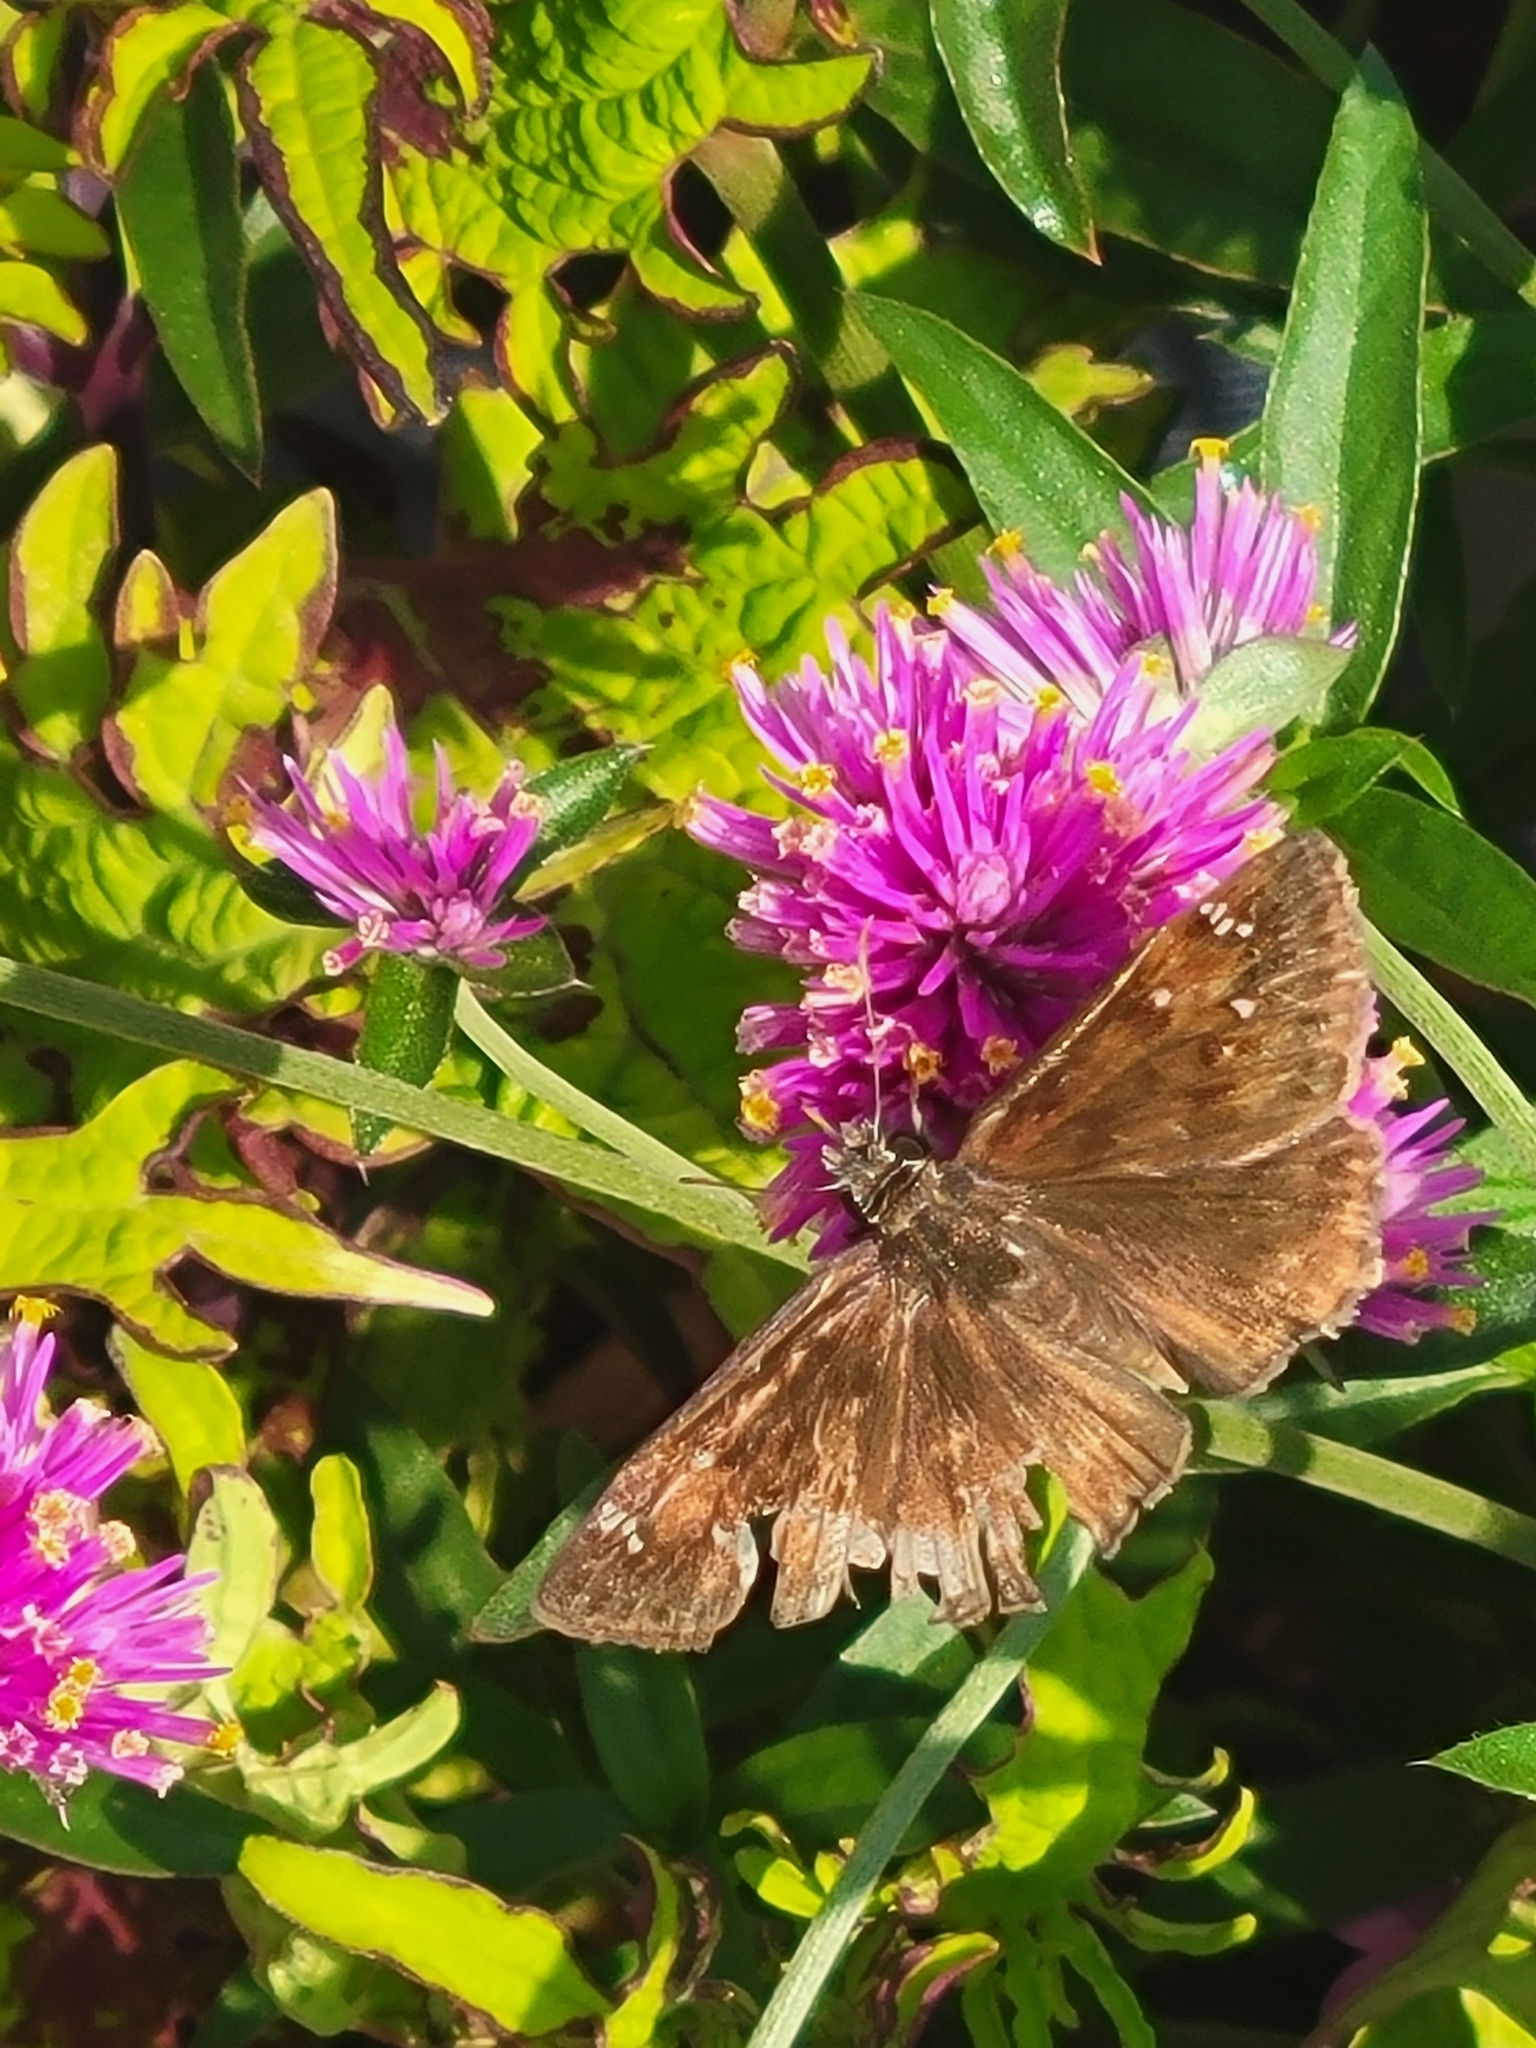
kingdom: Animalia
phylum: Arthropoda
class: Insecta
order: Lepidoptera
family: Hesperiidae
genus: Erynnis
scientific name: Erynnis horatius
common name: Horace's duskywing
